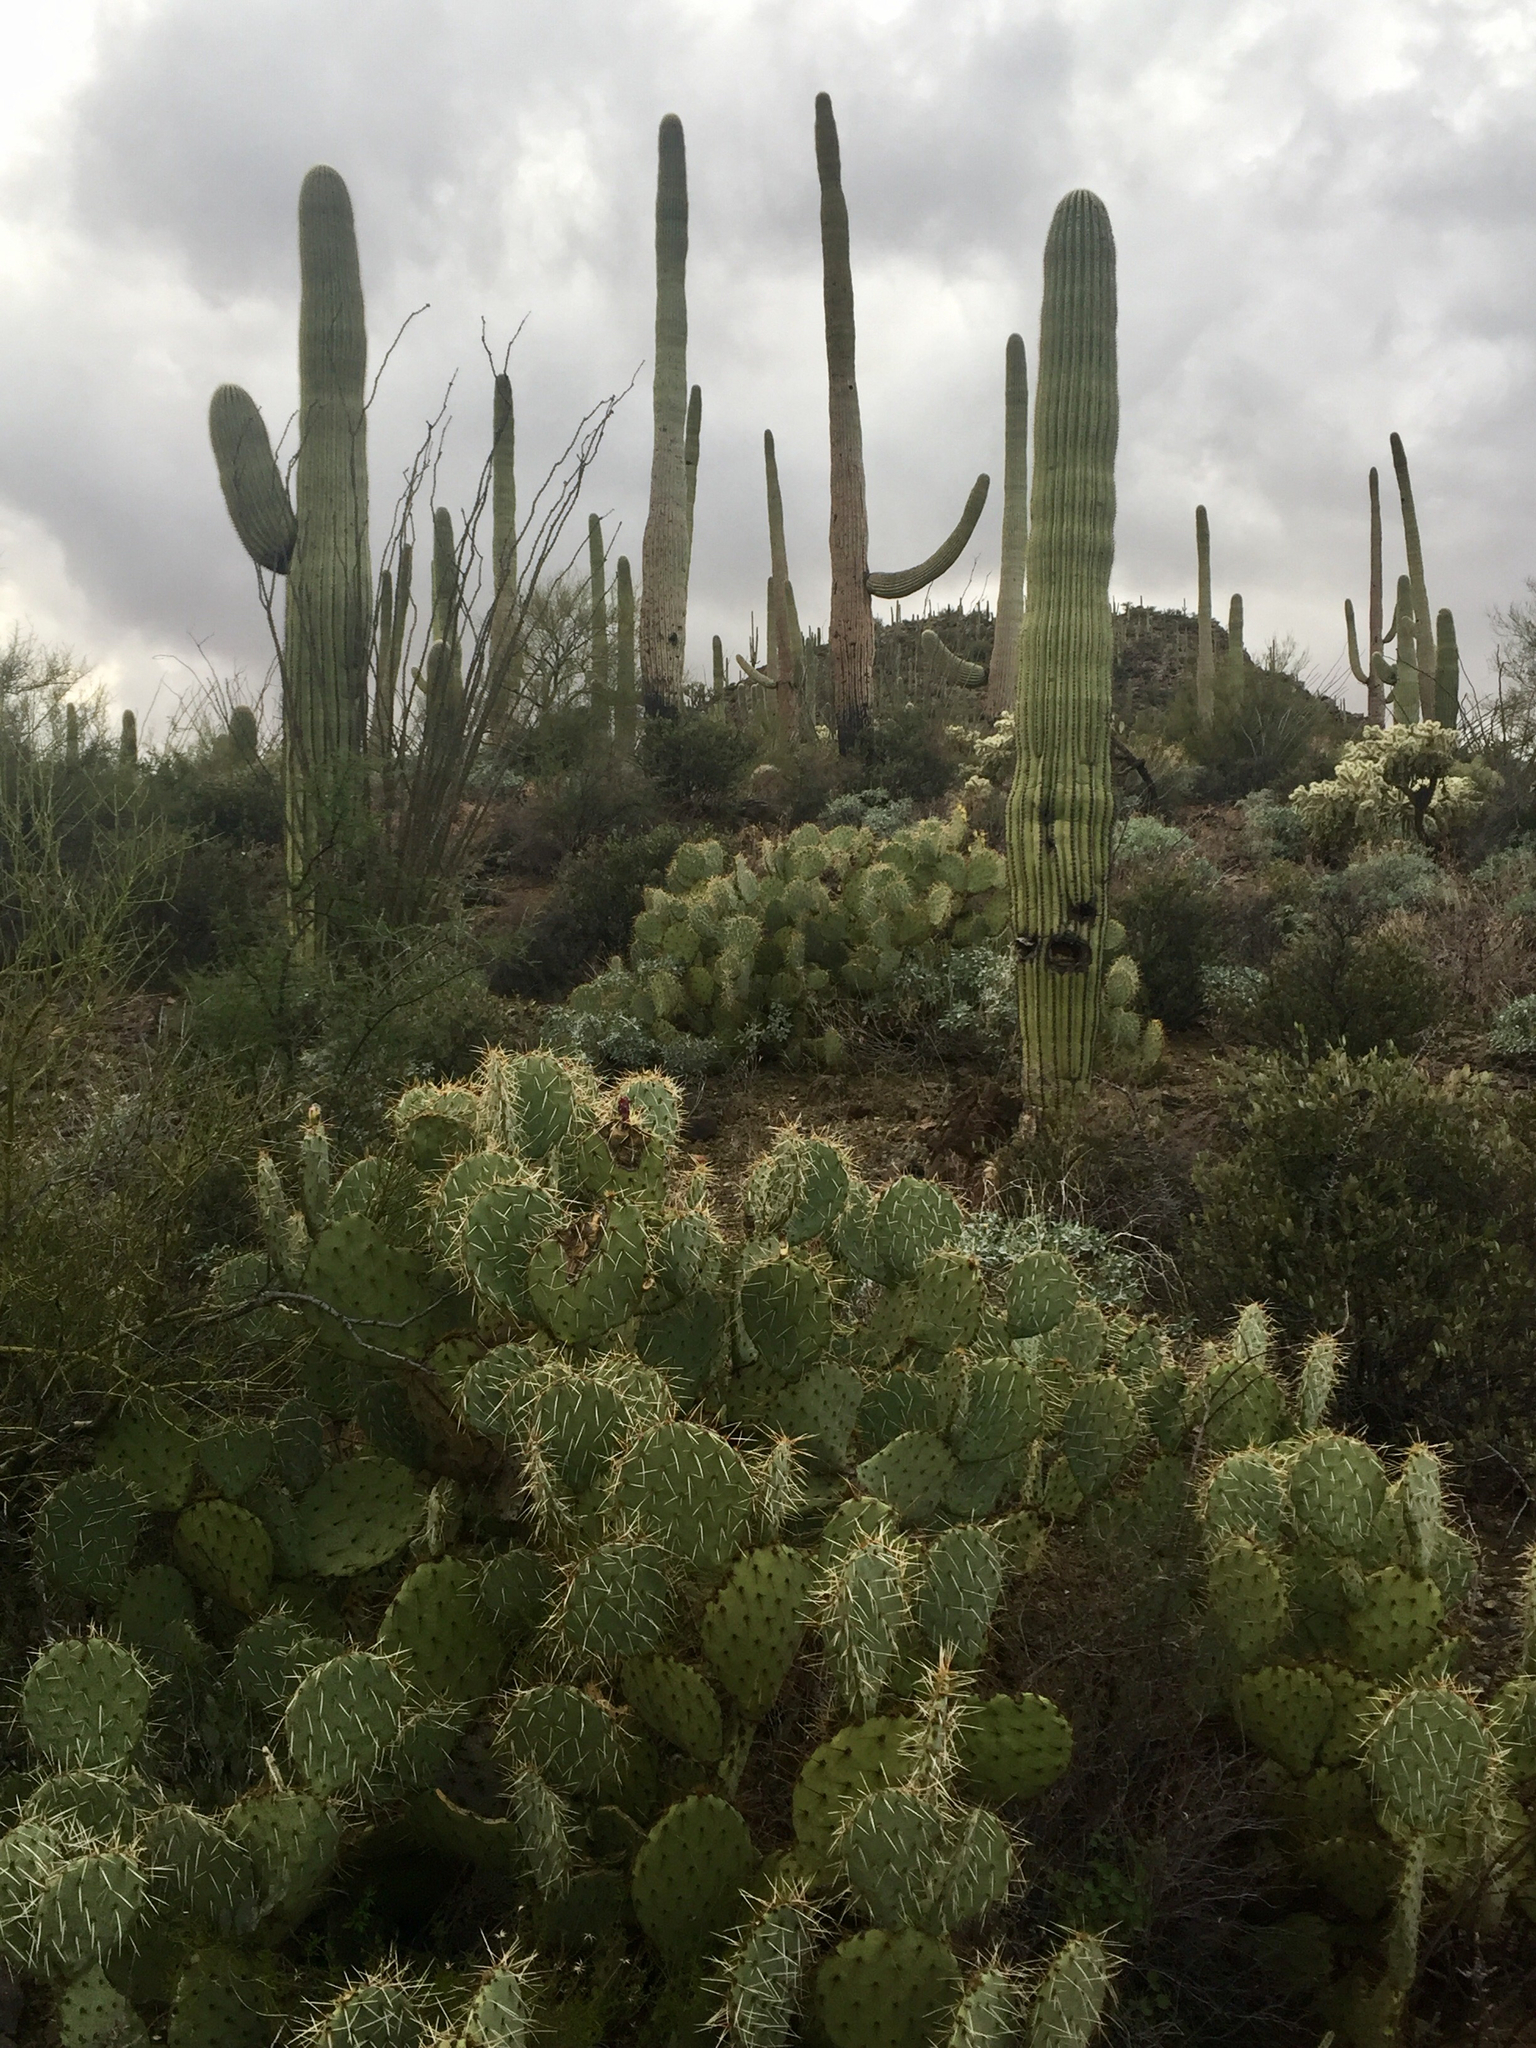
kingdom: Plantae
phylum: Tracheophyta
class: Magnoliopsida
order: Caryophyllales
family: Cactaceae
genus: Opuntia
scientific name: Opuntia engelmannii
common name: Cactus-apple
